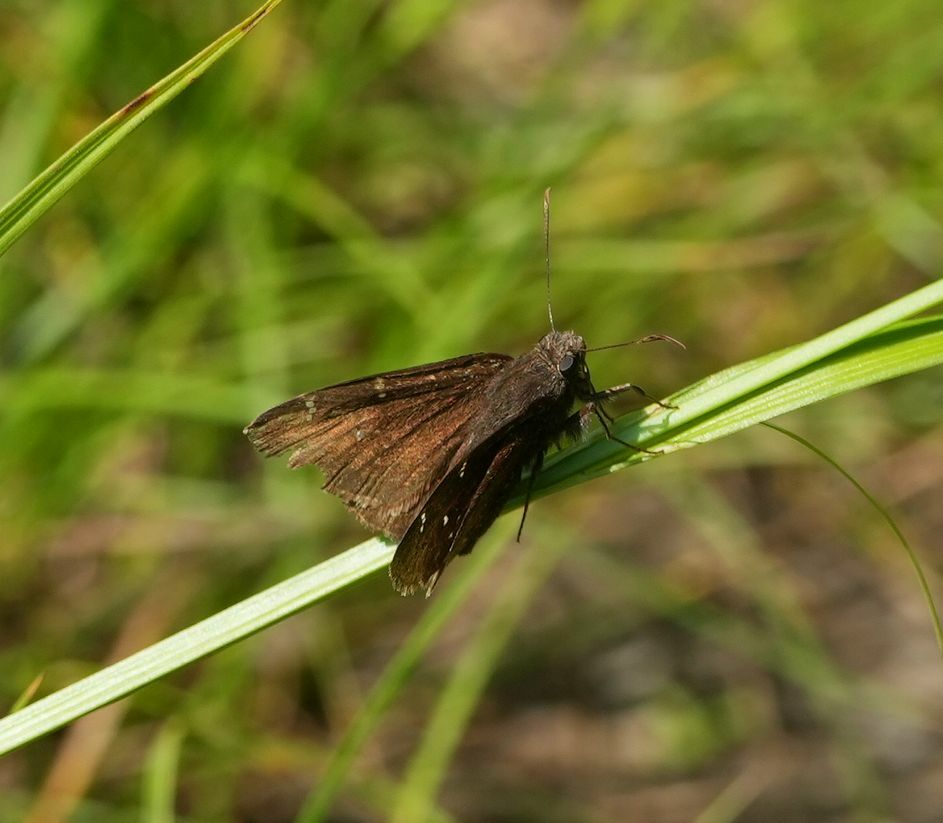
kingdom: Animalia
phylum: Arthropoda
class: Insecta
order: Lepidoptera
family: Hesperiidae
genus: Thorybes
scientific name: Thorybes pylades
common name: Northern cloudywing
